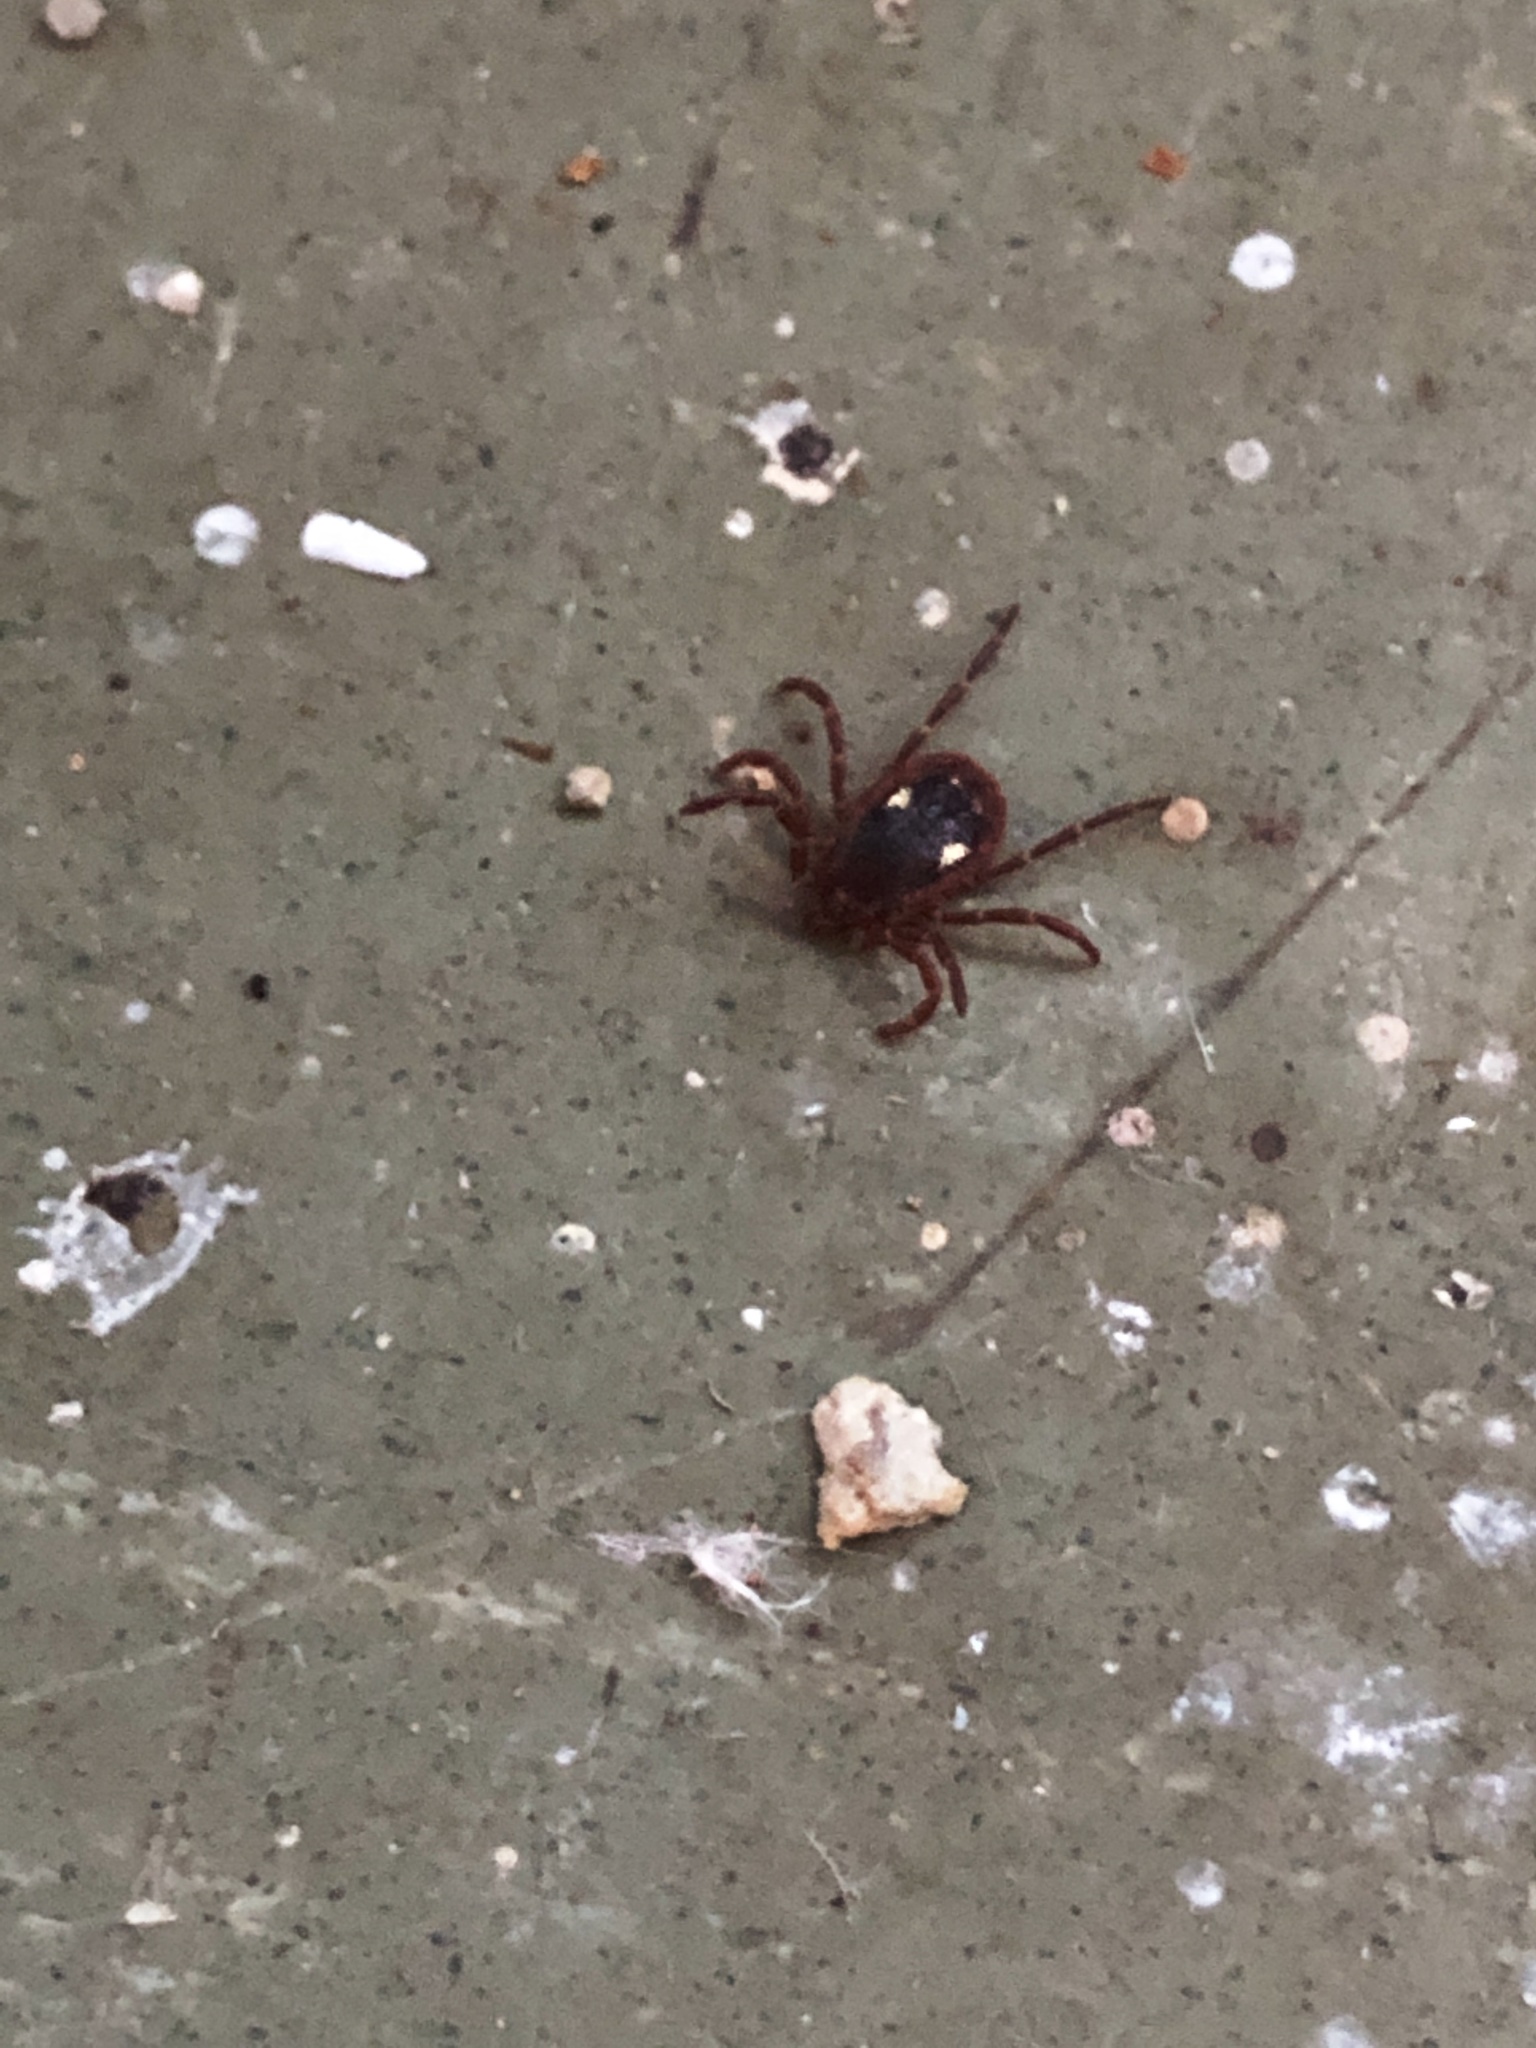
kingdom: Animalia
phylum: Arthropoda
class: Arachnida
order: Ixodida
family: Ixodidae
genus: Amblyomma
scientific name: Amblyomma triguttatum
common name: Kangaroo hard tick
